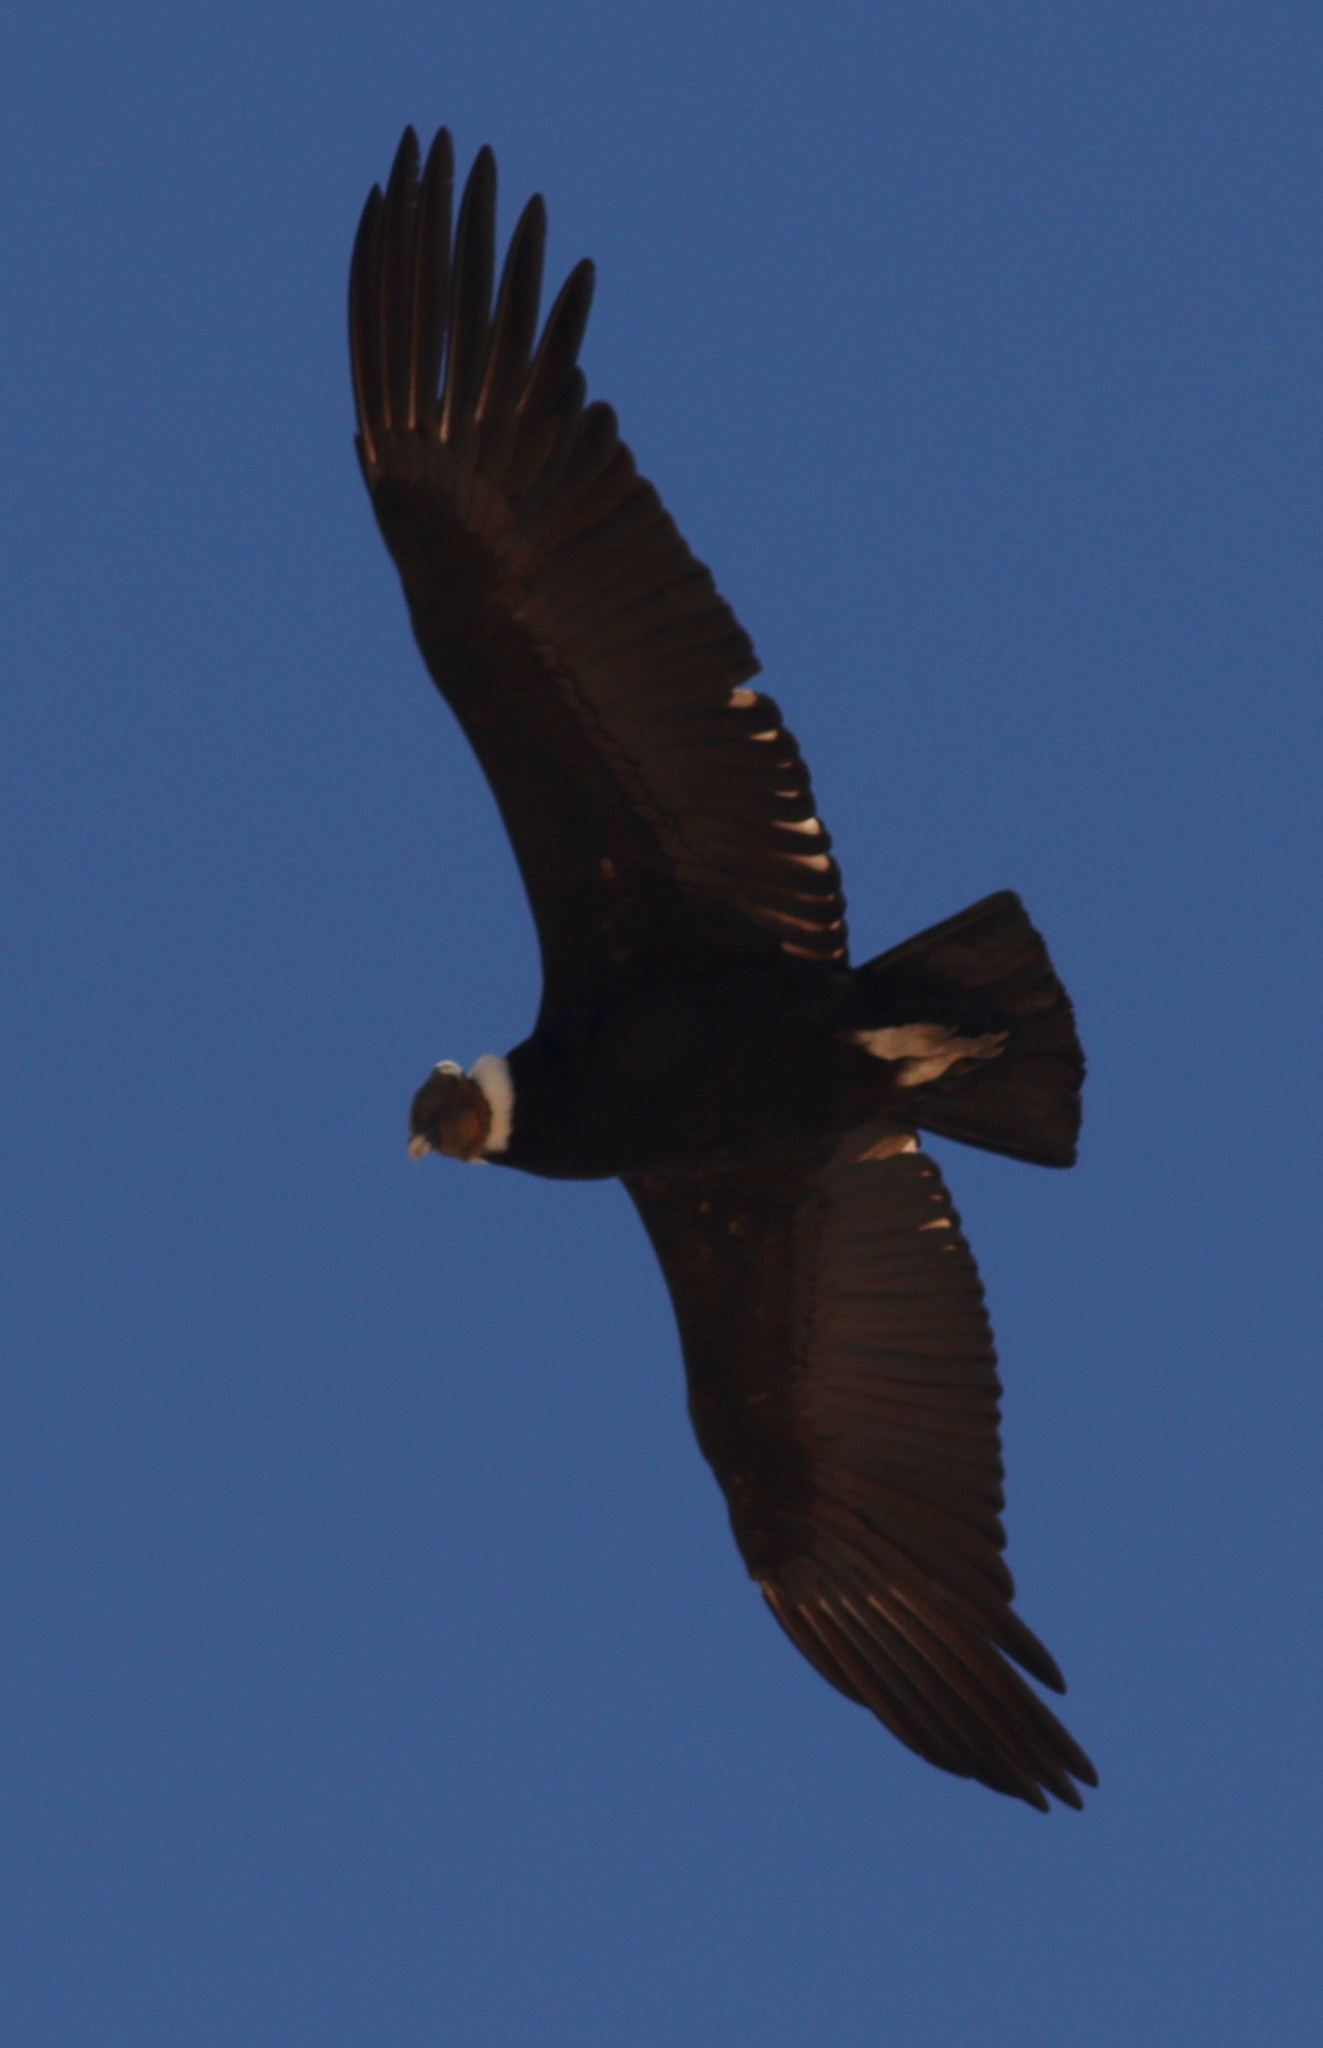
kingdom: Animalia
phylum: Chordata
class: Aves
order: Accipitriformes
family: Cathartidae
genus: Vultur
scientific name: Vultur gryphus
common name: Andean condor
